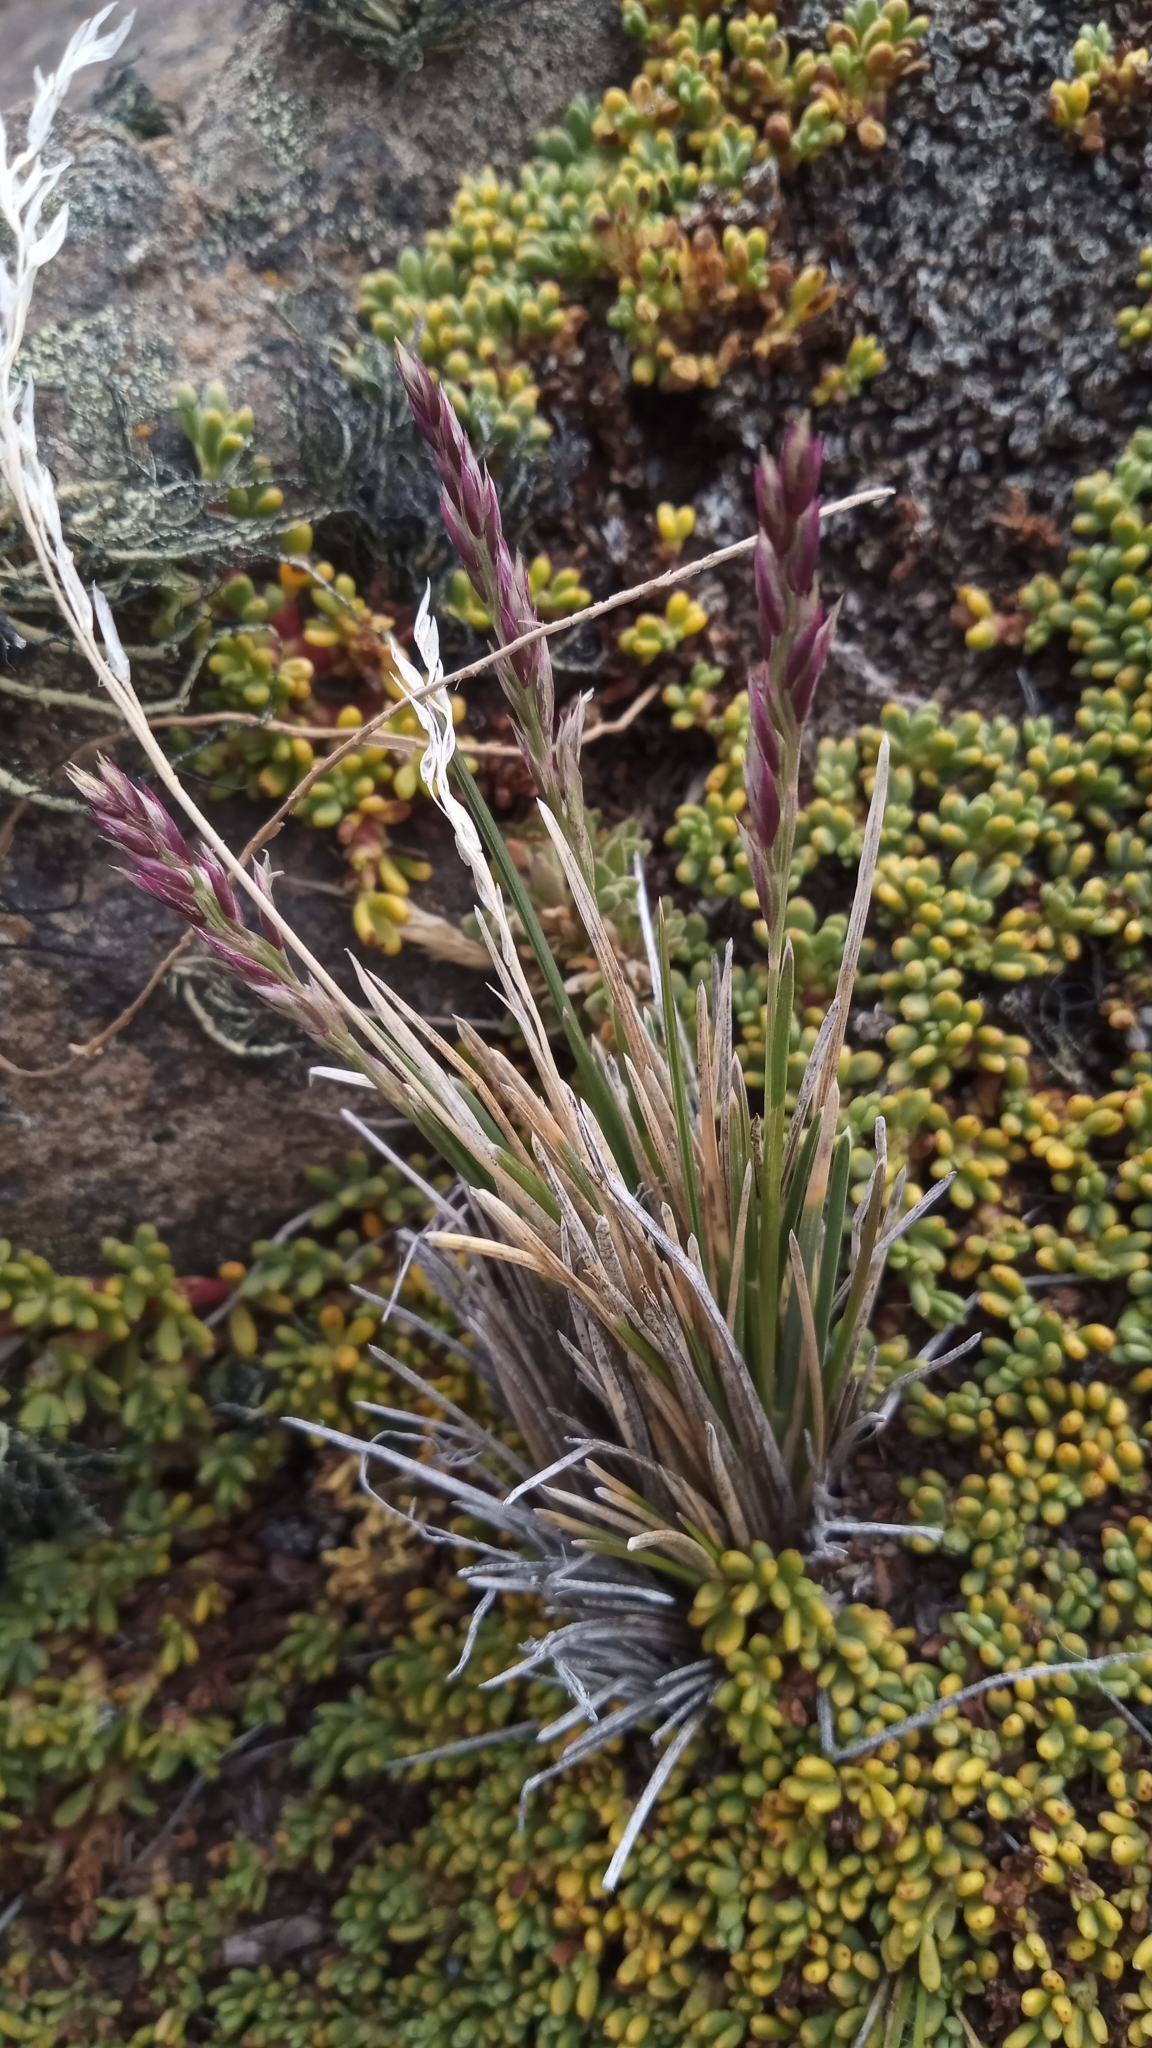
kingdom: Plantae
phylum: Tracheophyta
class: Magnoliopsida
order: Fabales
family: Fabaceae
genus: Adesmia
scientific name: Adesmia salicornioides
